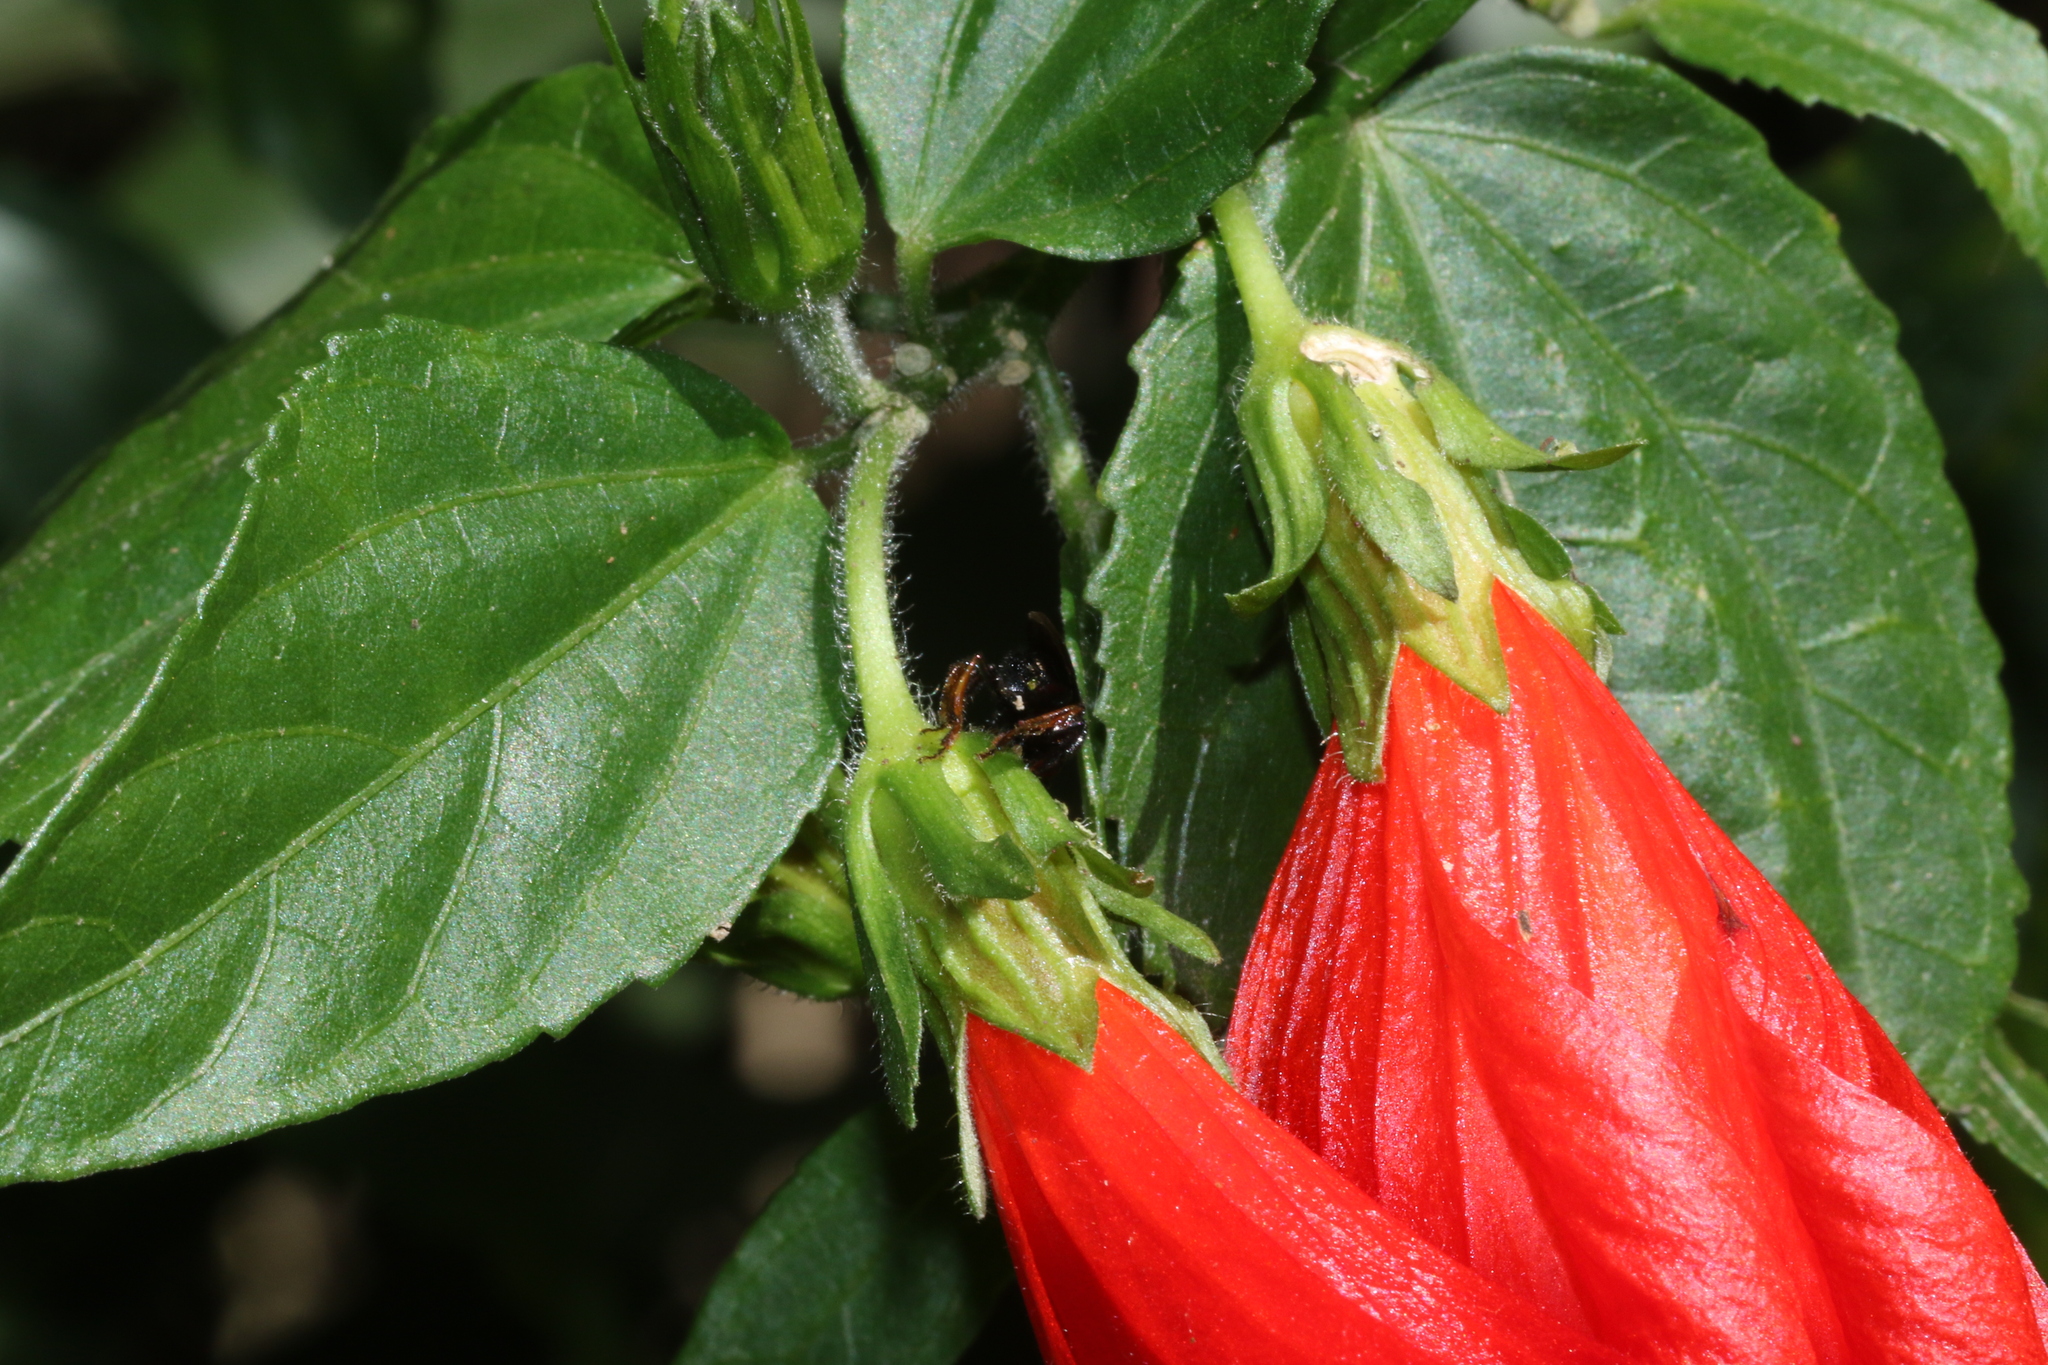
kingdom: Animalia
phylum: Arthropoda
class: Insecta
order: Hymenoptera
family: Apidae
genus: Trigona
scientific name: Trigona spinipes
